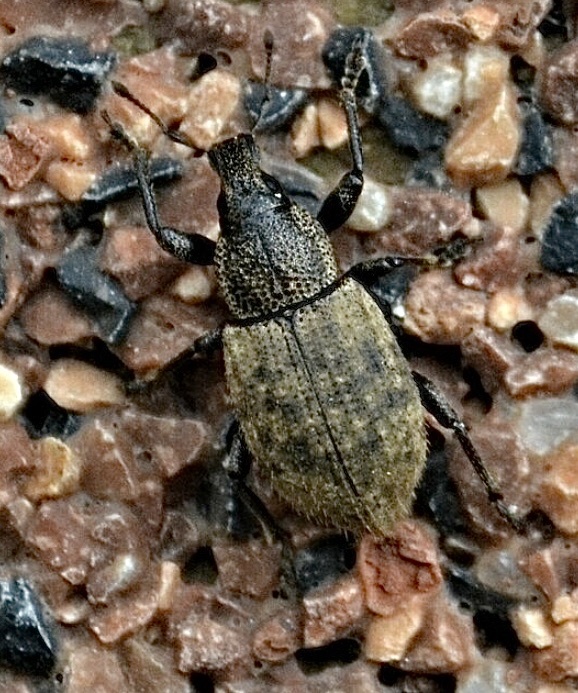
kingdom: Animalia
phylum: Arthropoda
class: Insecta
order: Coleoptera
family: Curculionidae
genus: Barynotus
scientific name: Barynotus obscurus
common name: Weevil
